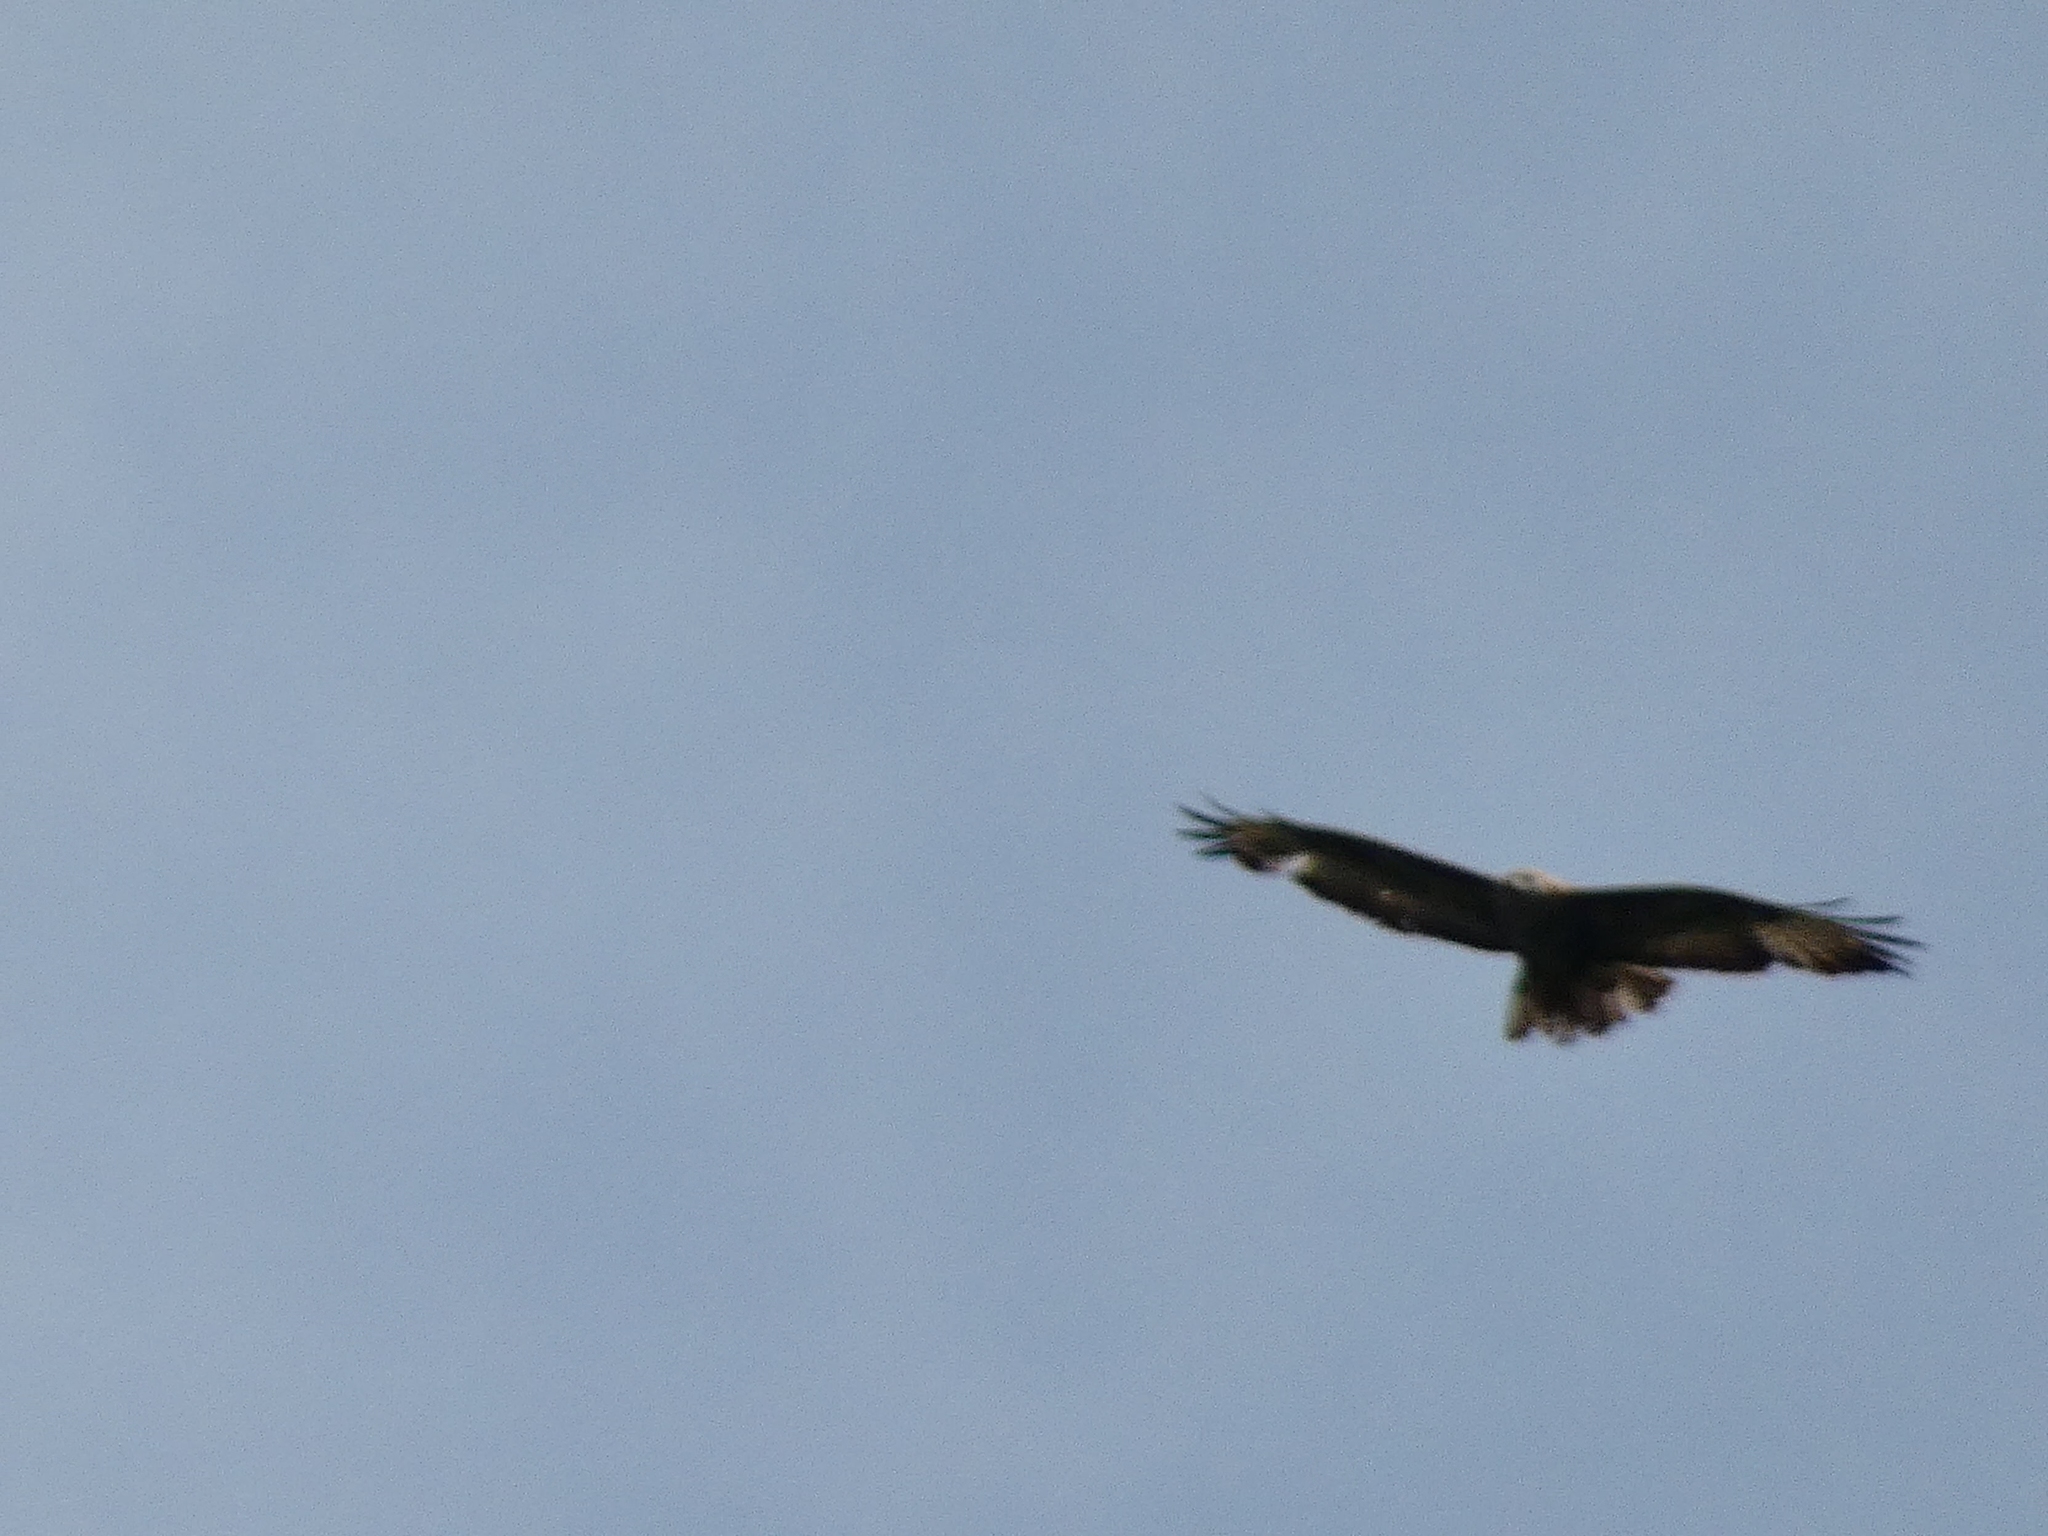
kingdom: Animalia
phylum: Chordata
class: Aves
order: Accipitriformes
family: Accipitridae
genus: Aquila
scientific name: Aquila chrysaetos
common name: Golden eagle
